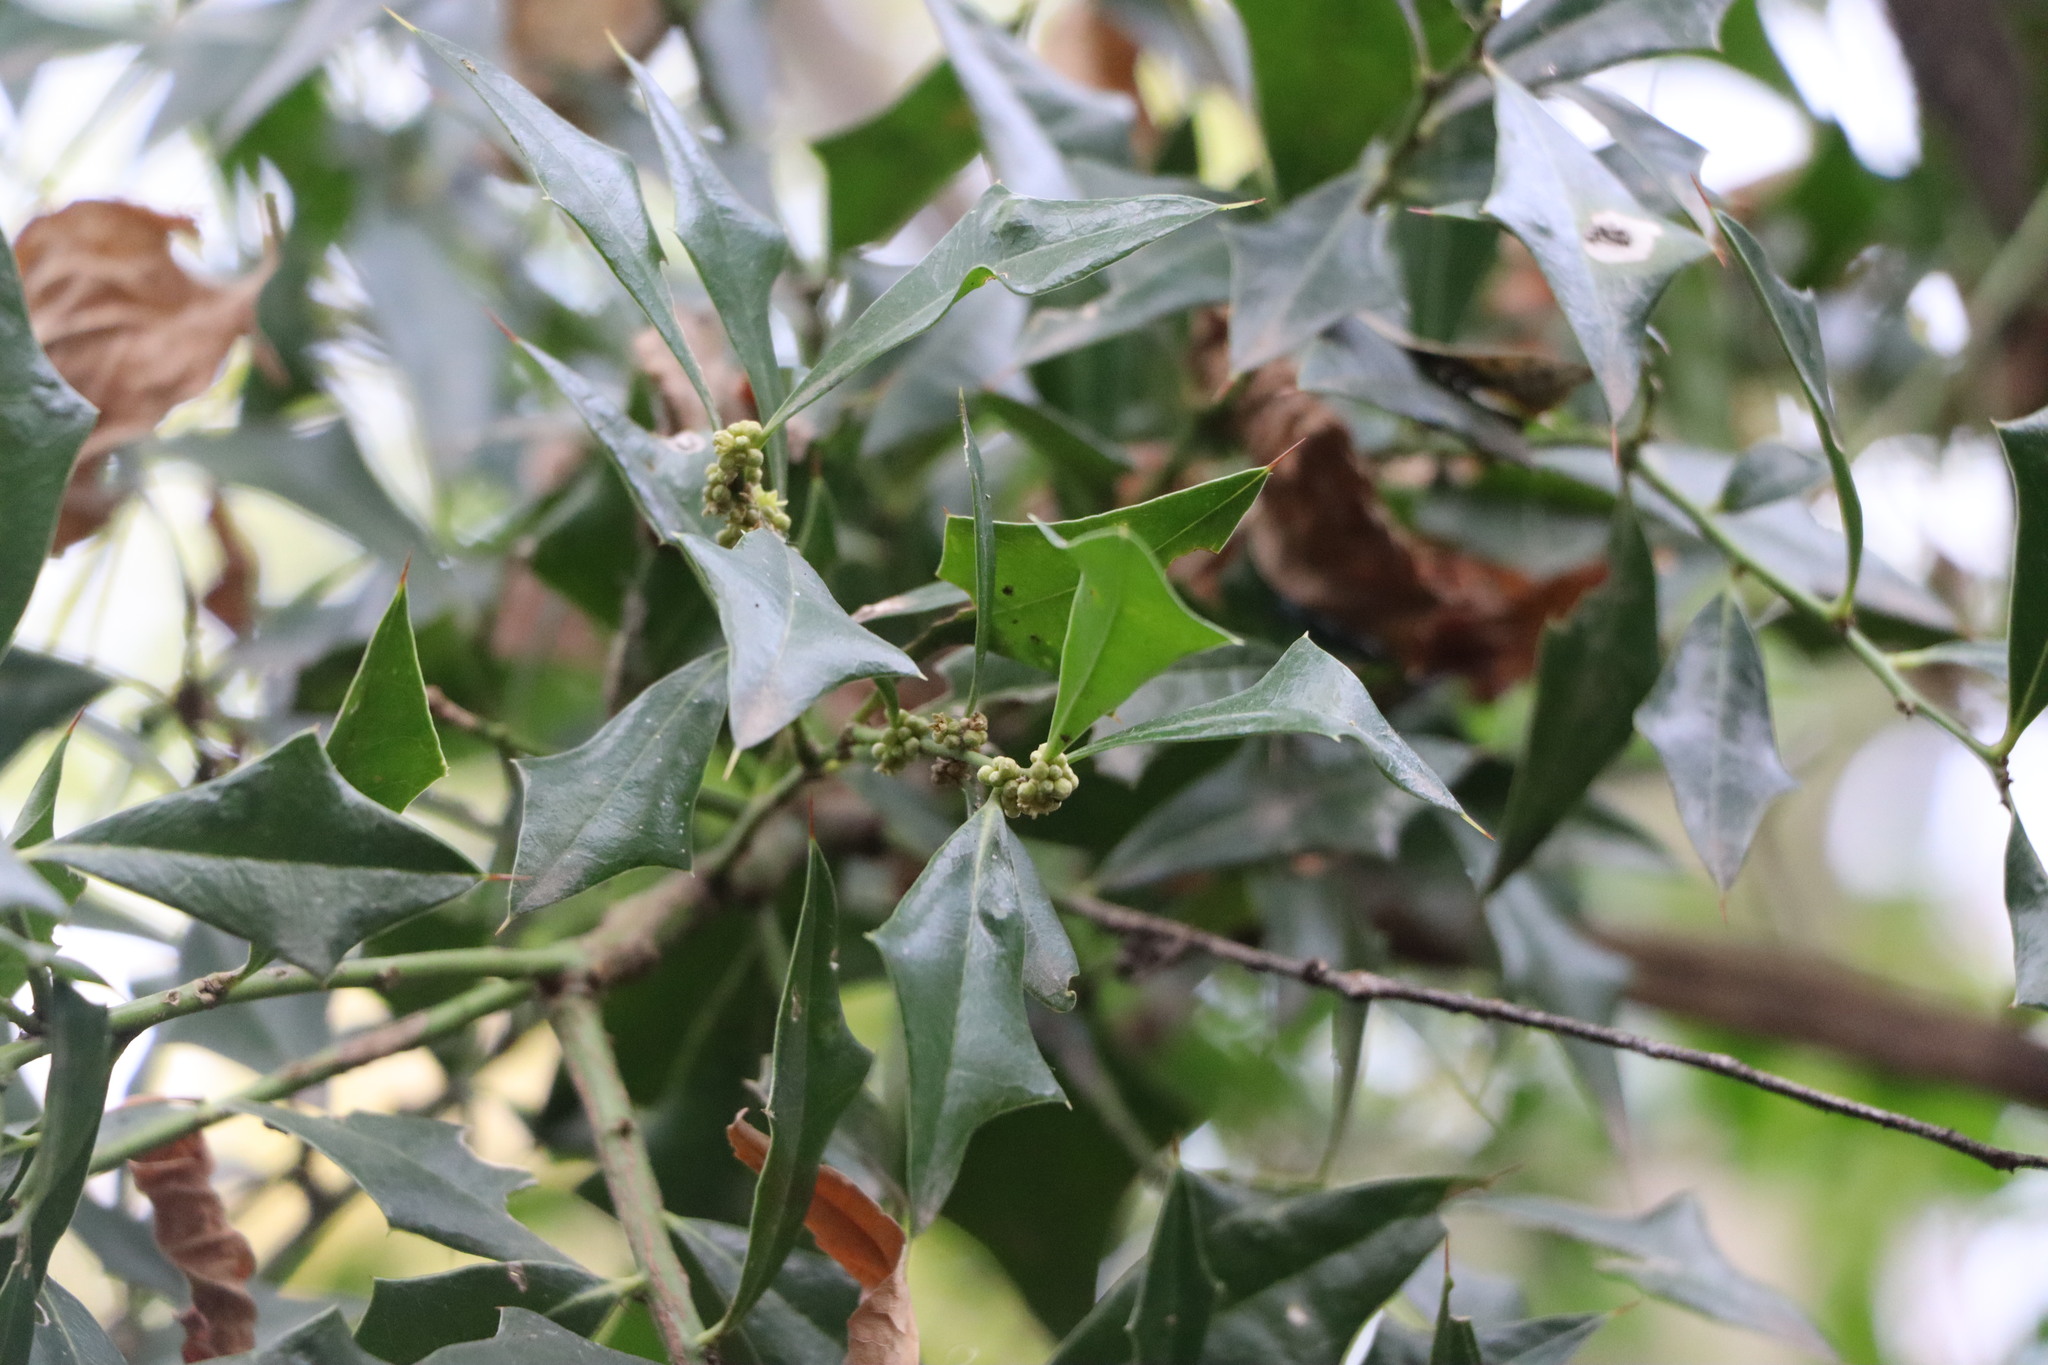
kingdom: Plantae
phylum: Tracheophyta
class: Magnoliopsida
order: Santalales
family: Cervantesiaceae
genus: Jodina
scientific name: Jodina rhombifolia
